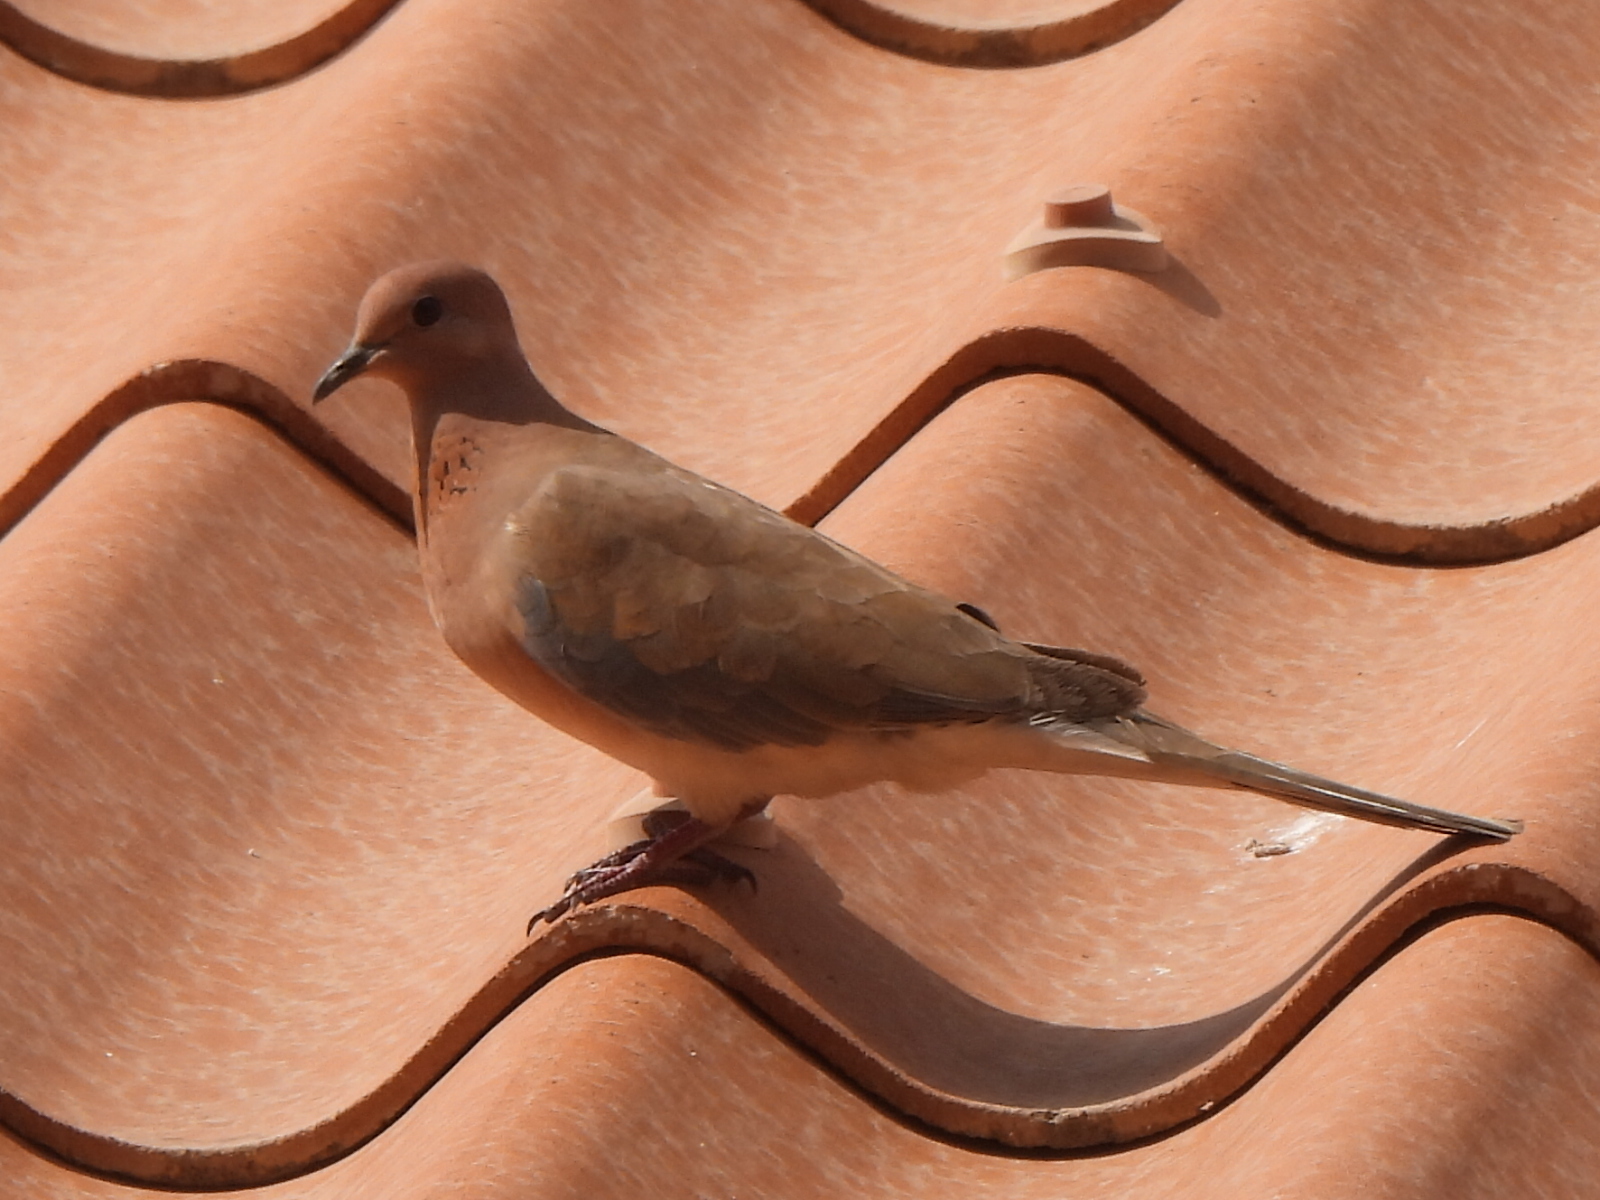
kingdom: Animalia
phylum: Chordata
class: Aves
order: Columbiformes
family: Columbidae
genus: Spilopelia
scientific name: Spilopelia senegalensis
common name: Laughing dove
